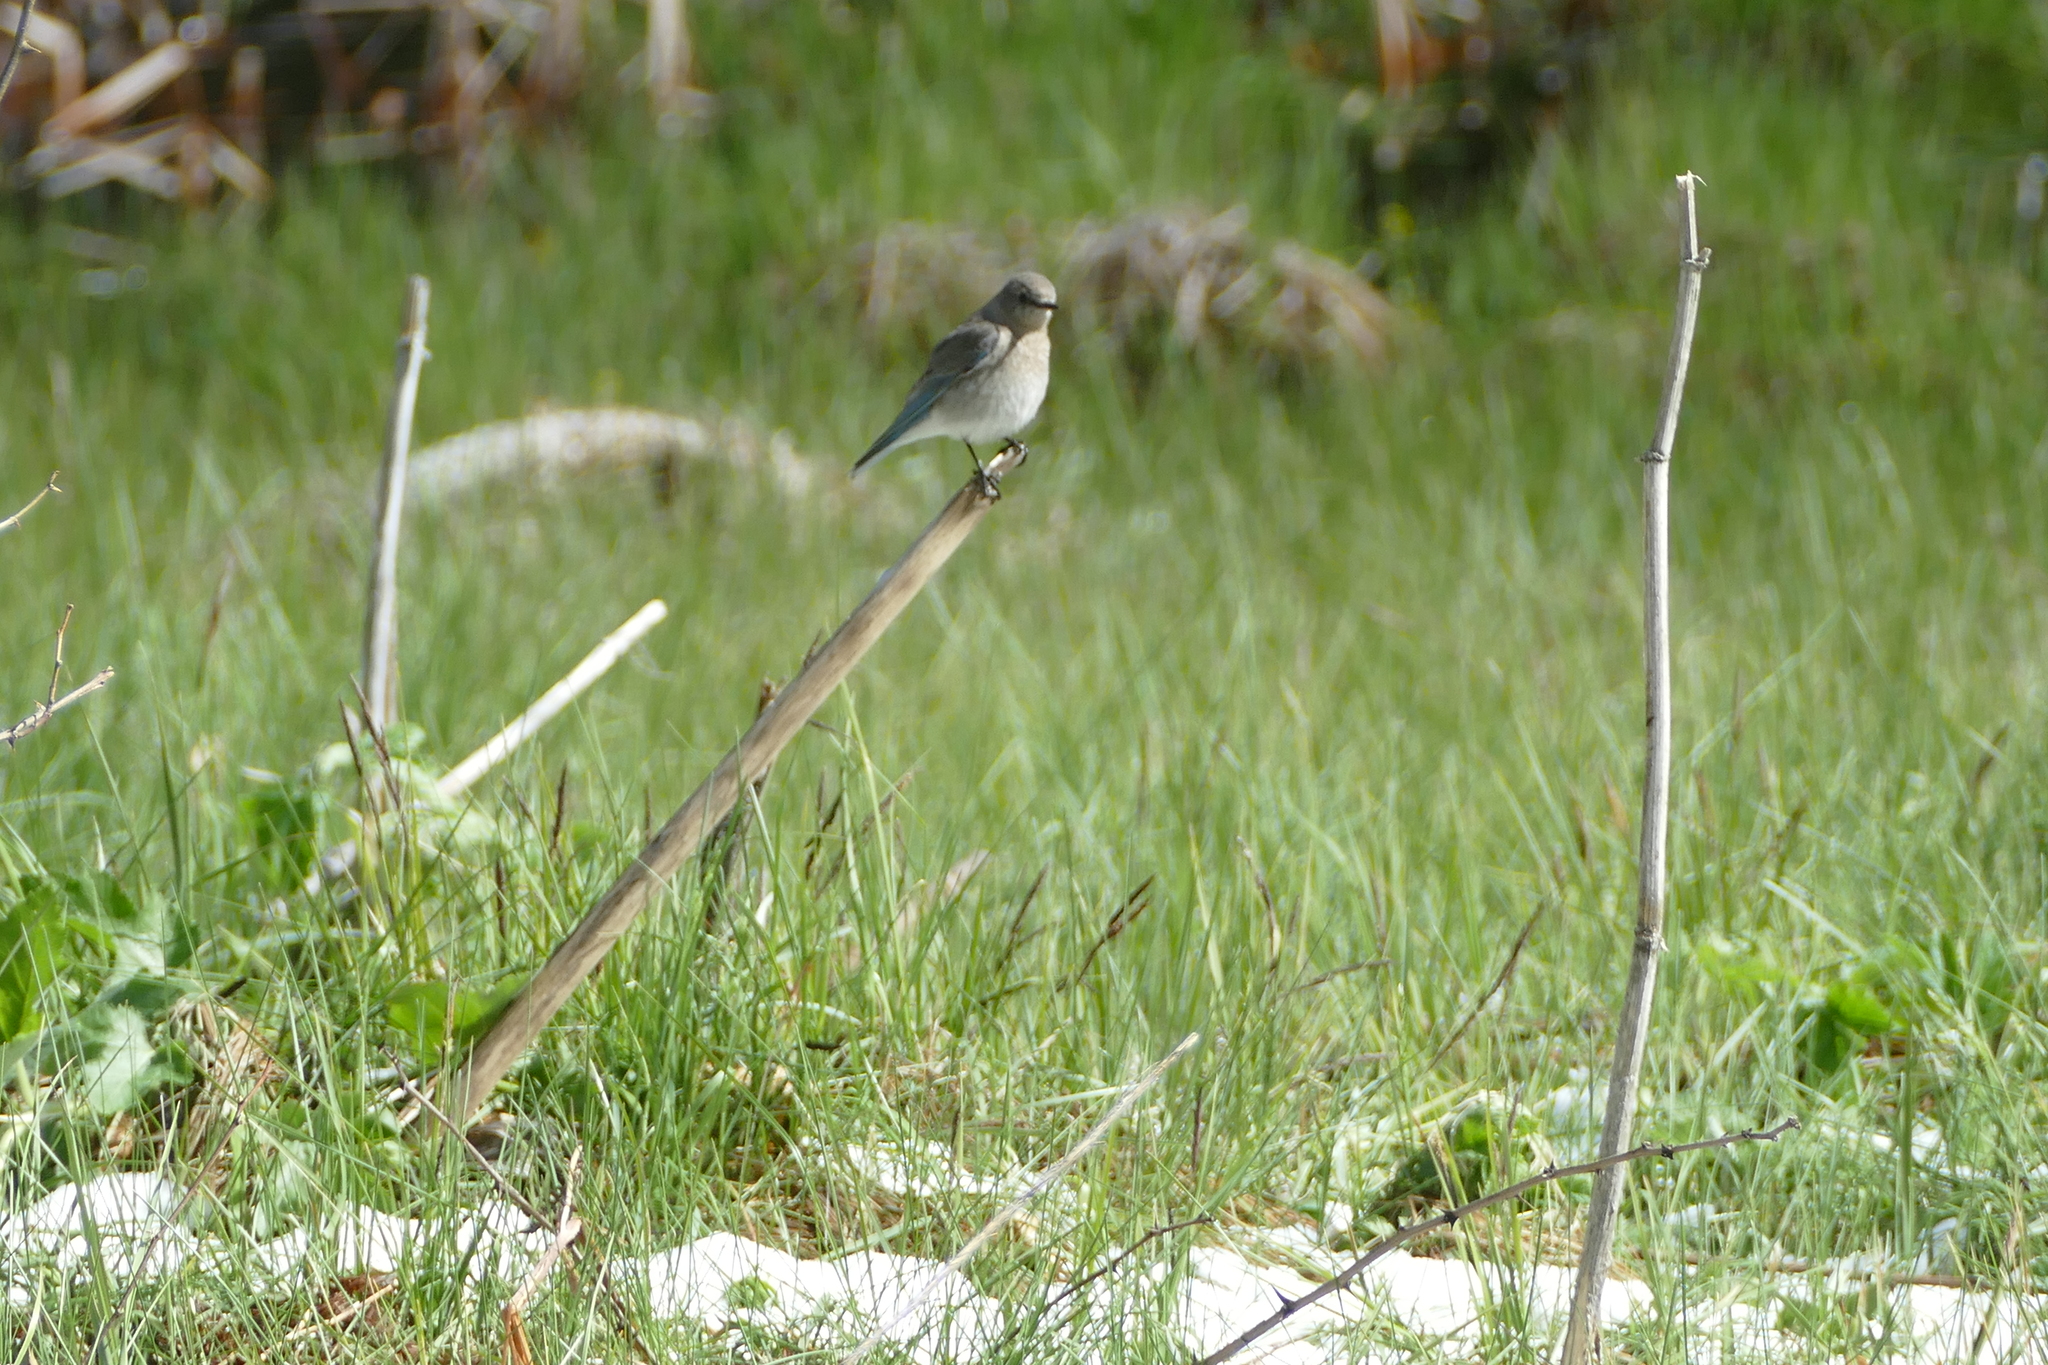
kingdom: Animalia
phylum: Chordata
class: Aves
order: Passeriformes
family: Turdidae
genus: Sialia
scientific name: Sialia currucoides
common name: Mountain bluebird
